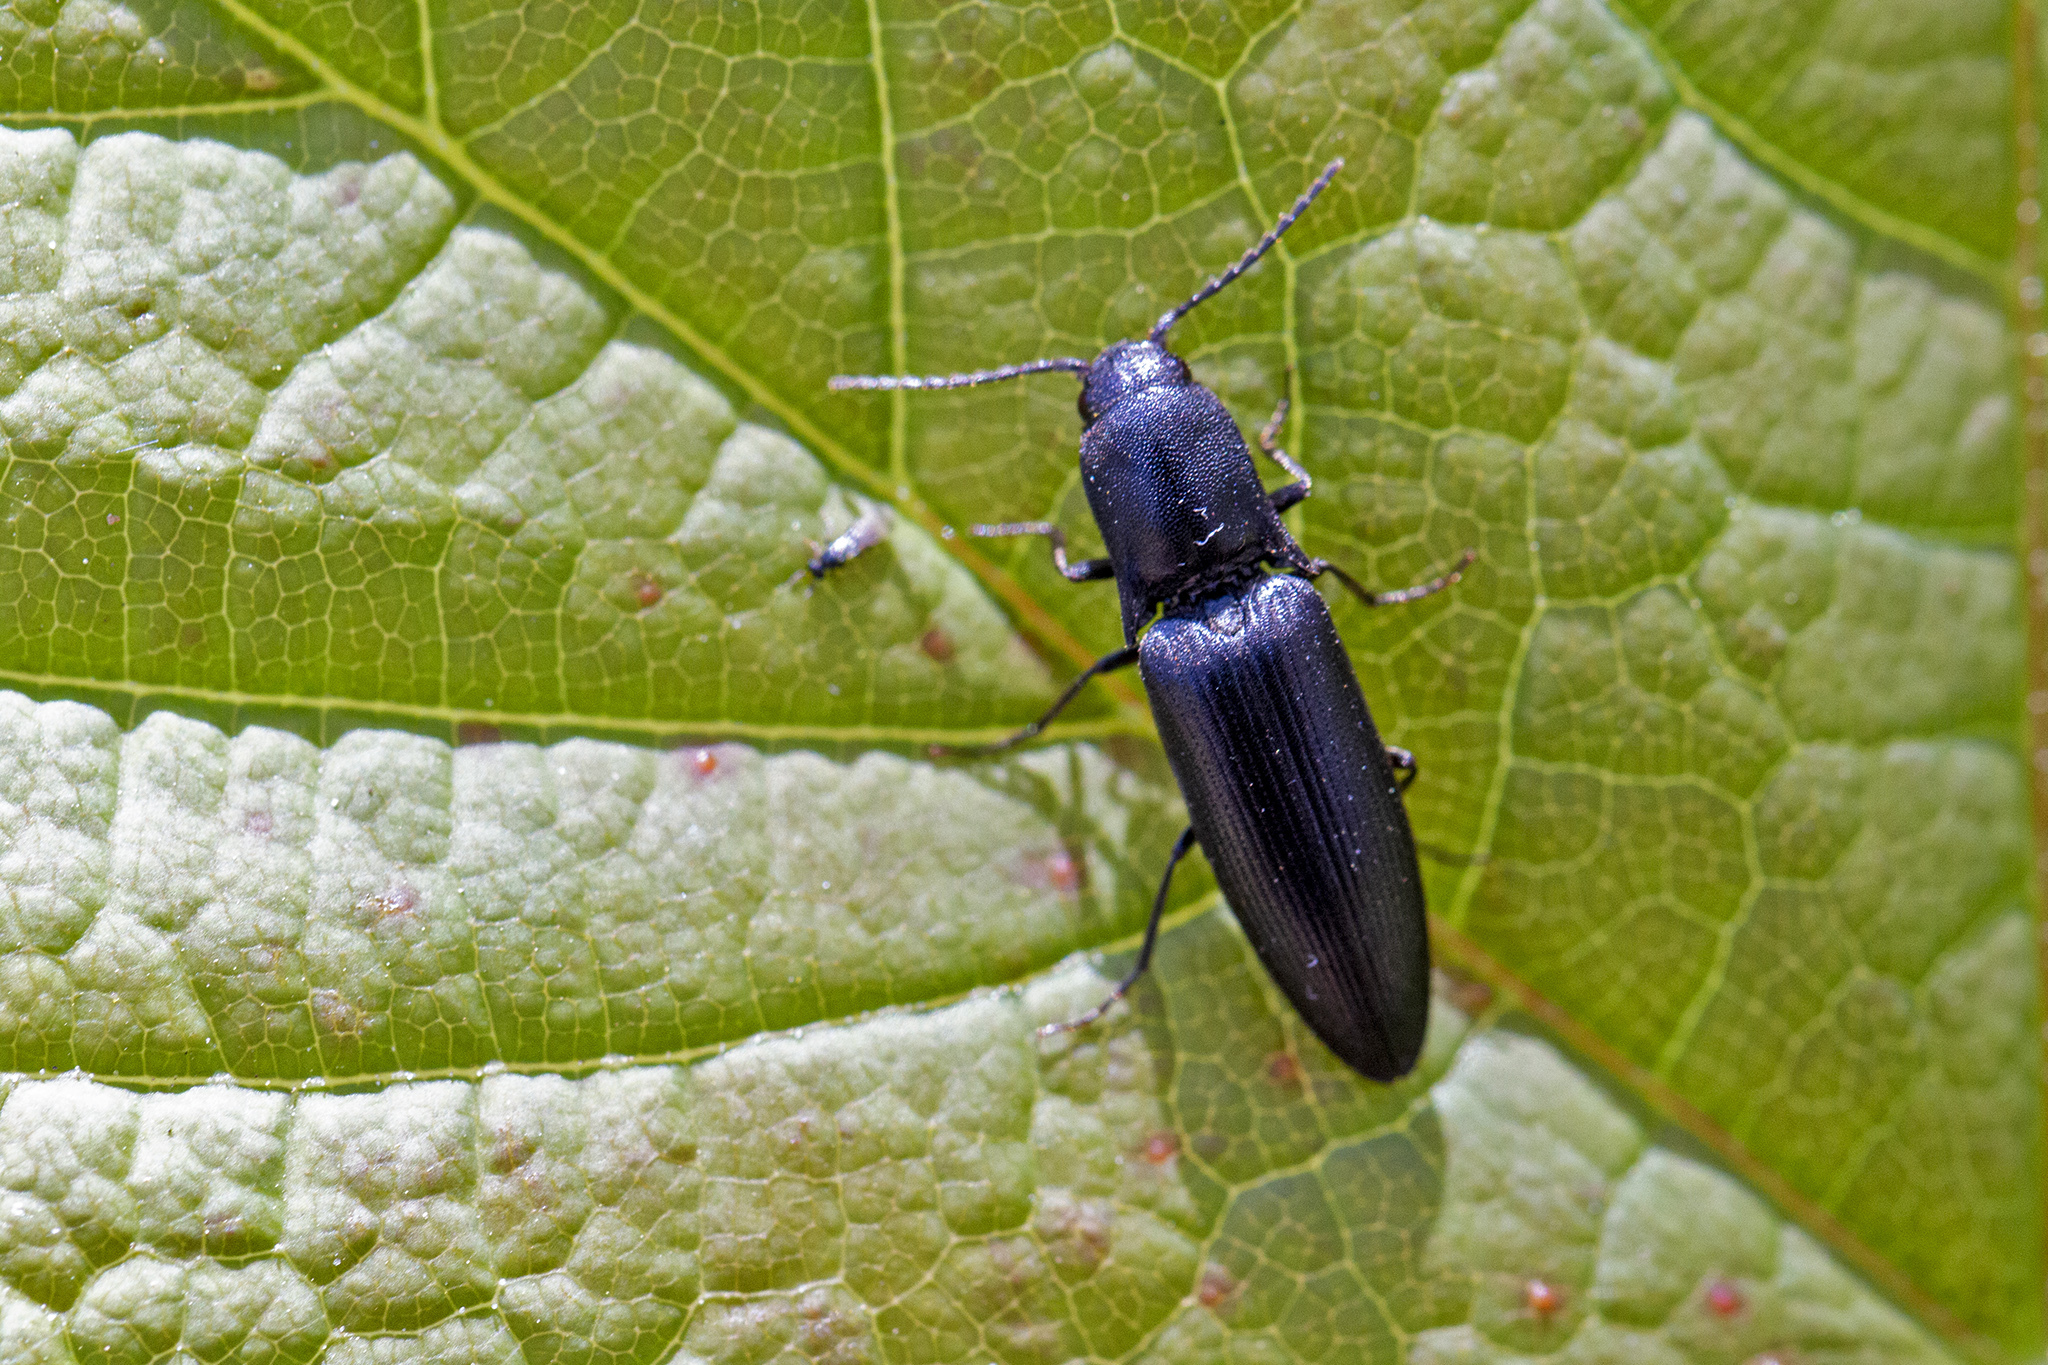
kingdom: Animalia
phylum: Arthropoda
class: Insecta
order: Coleoptera
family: Elateridae
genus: Ectinus
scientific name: Ectinus aterrimus
